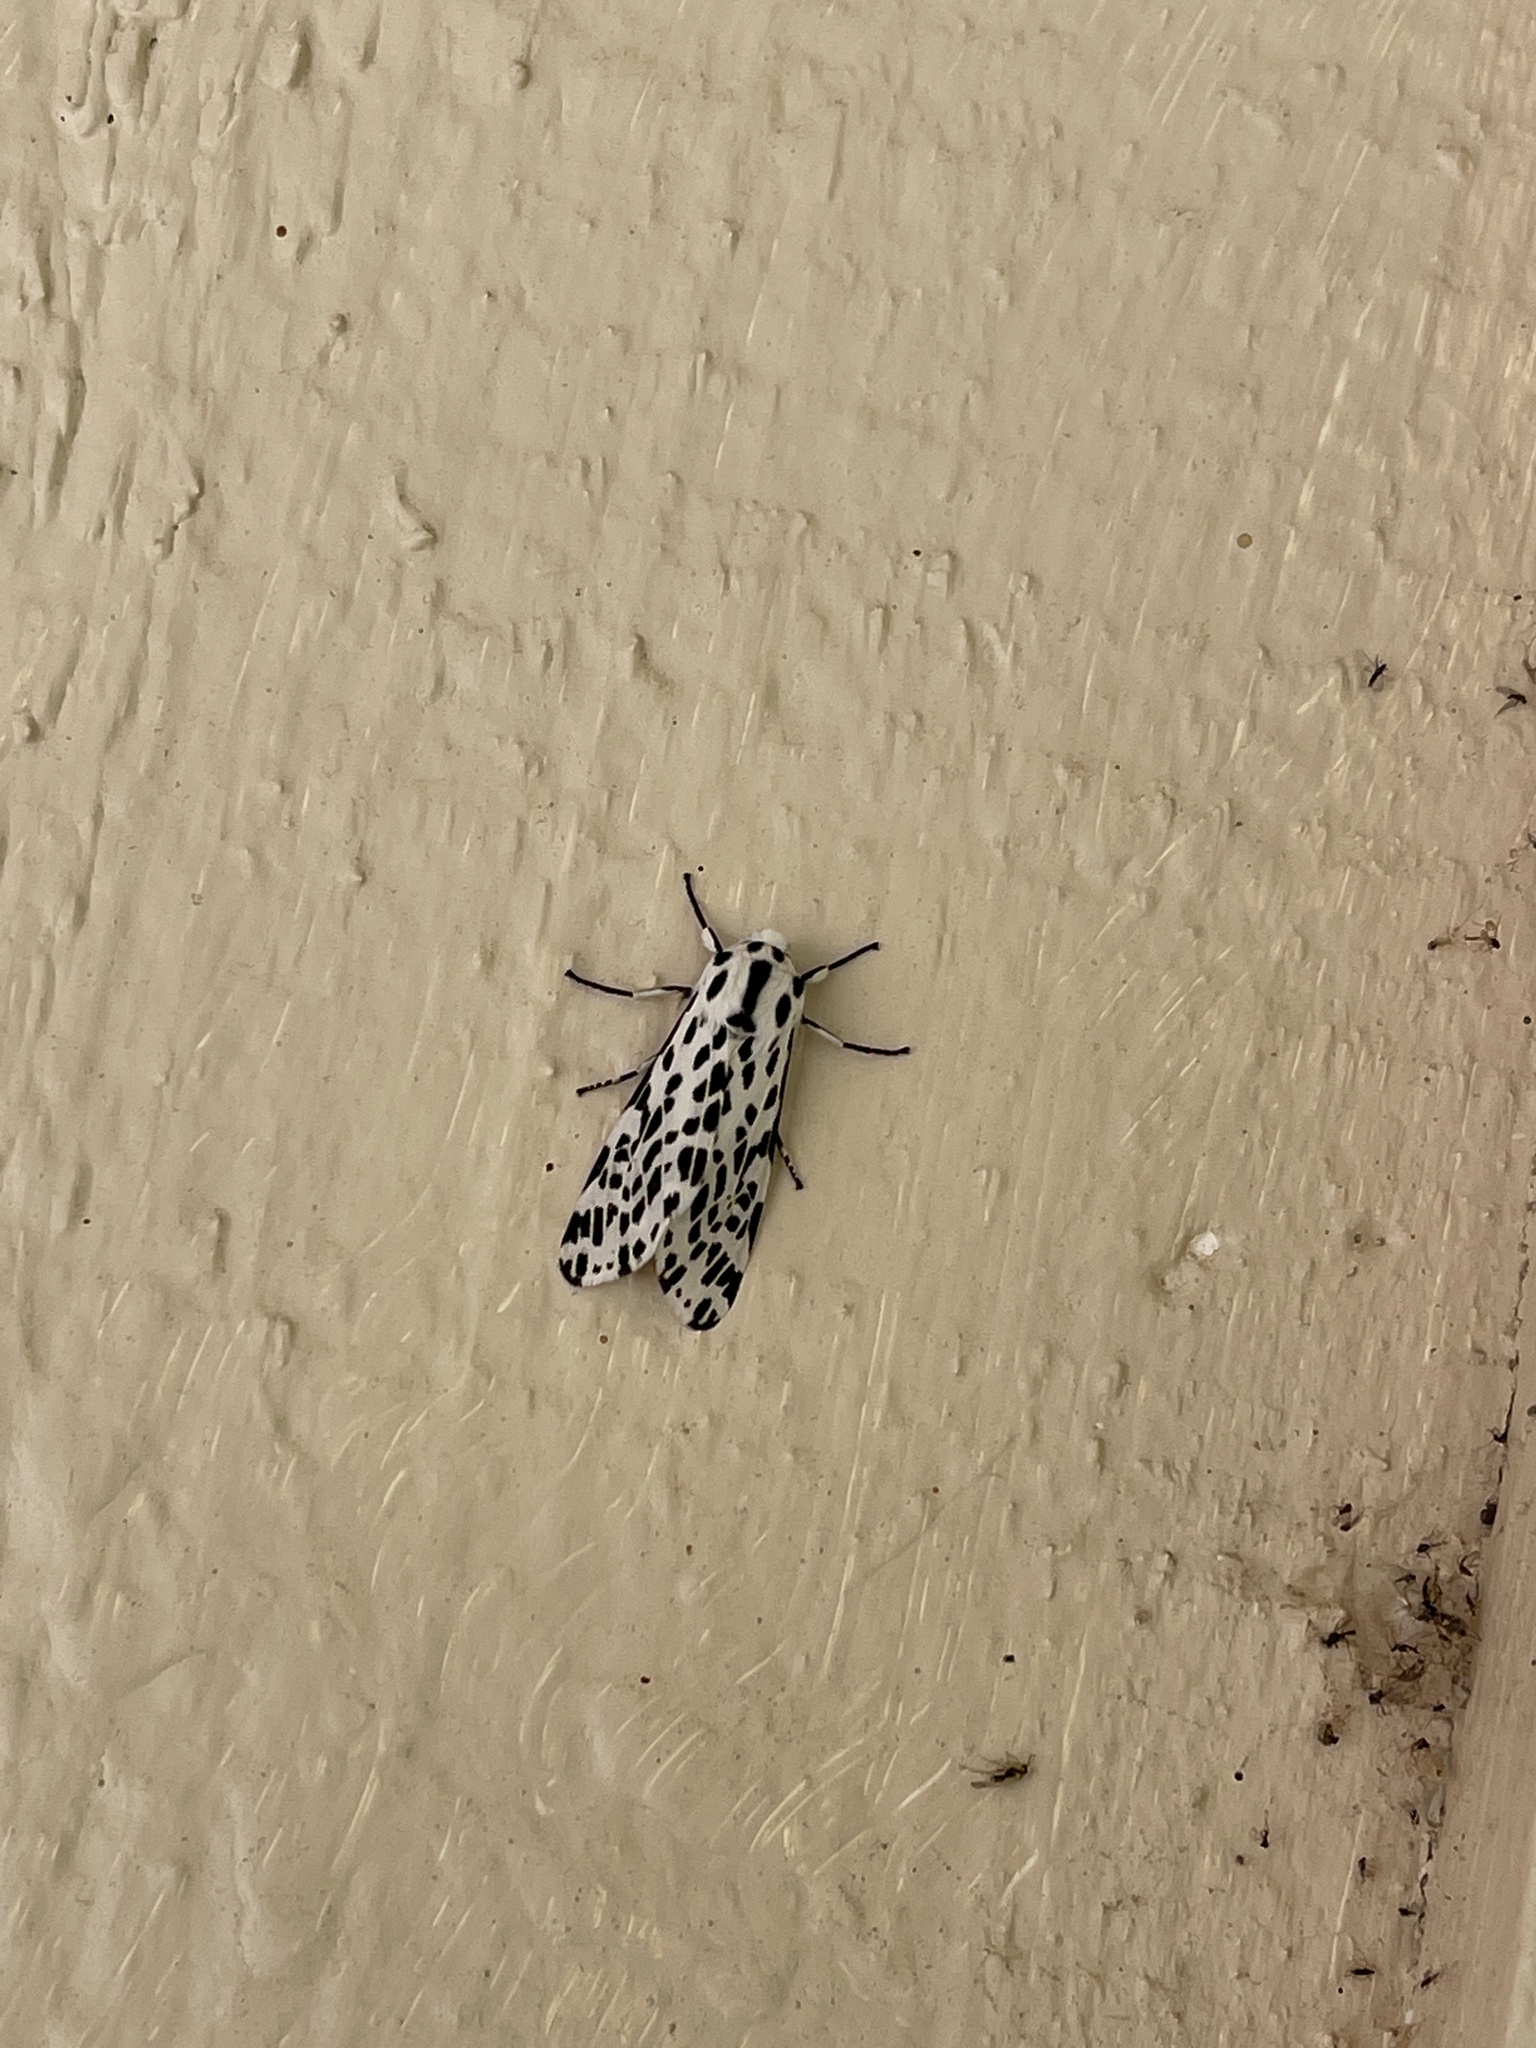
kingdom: Animalia
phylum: Arthropoda
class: Insecta
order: Lepidoptera
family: Erebidae
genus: Hypercompe
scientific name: Hypercompe permaculata
